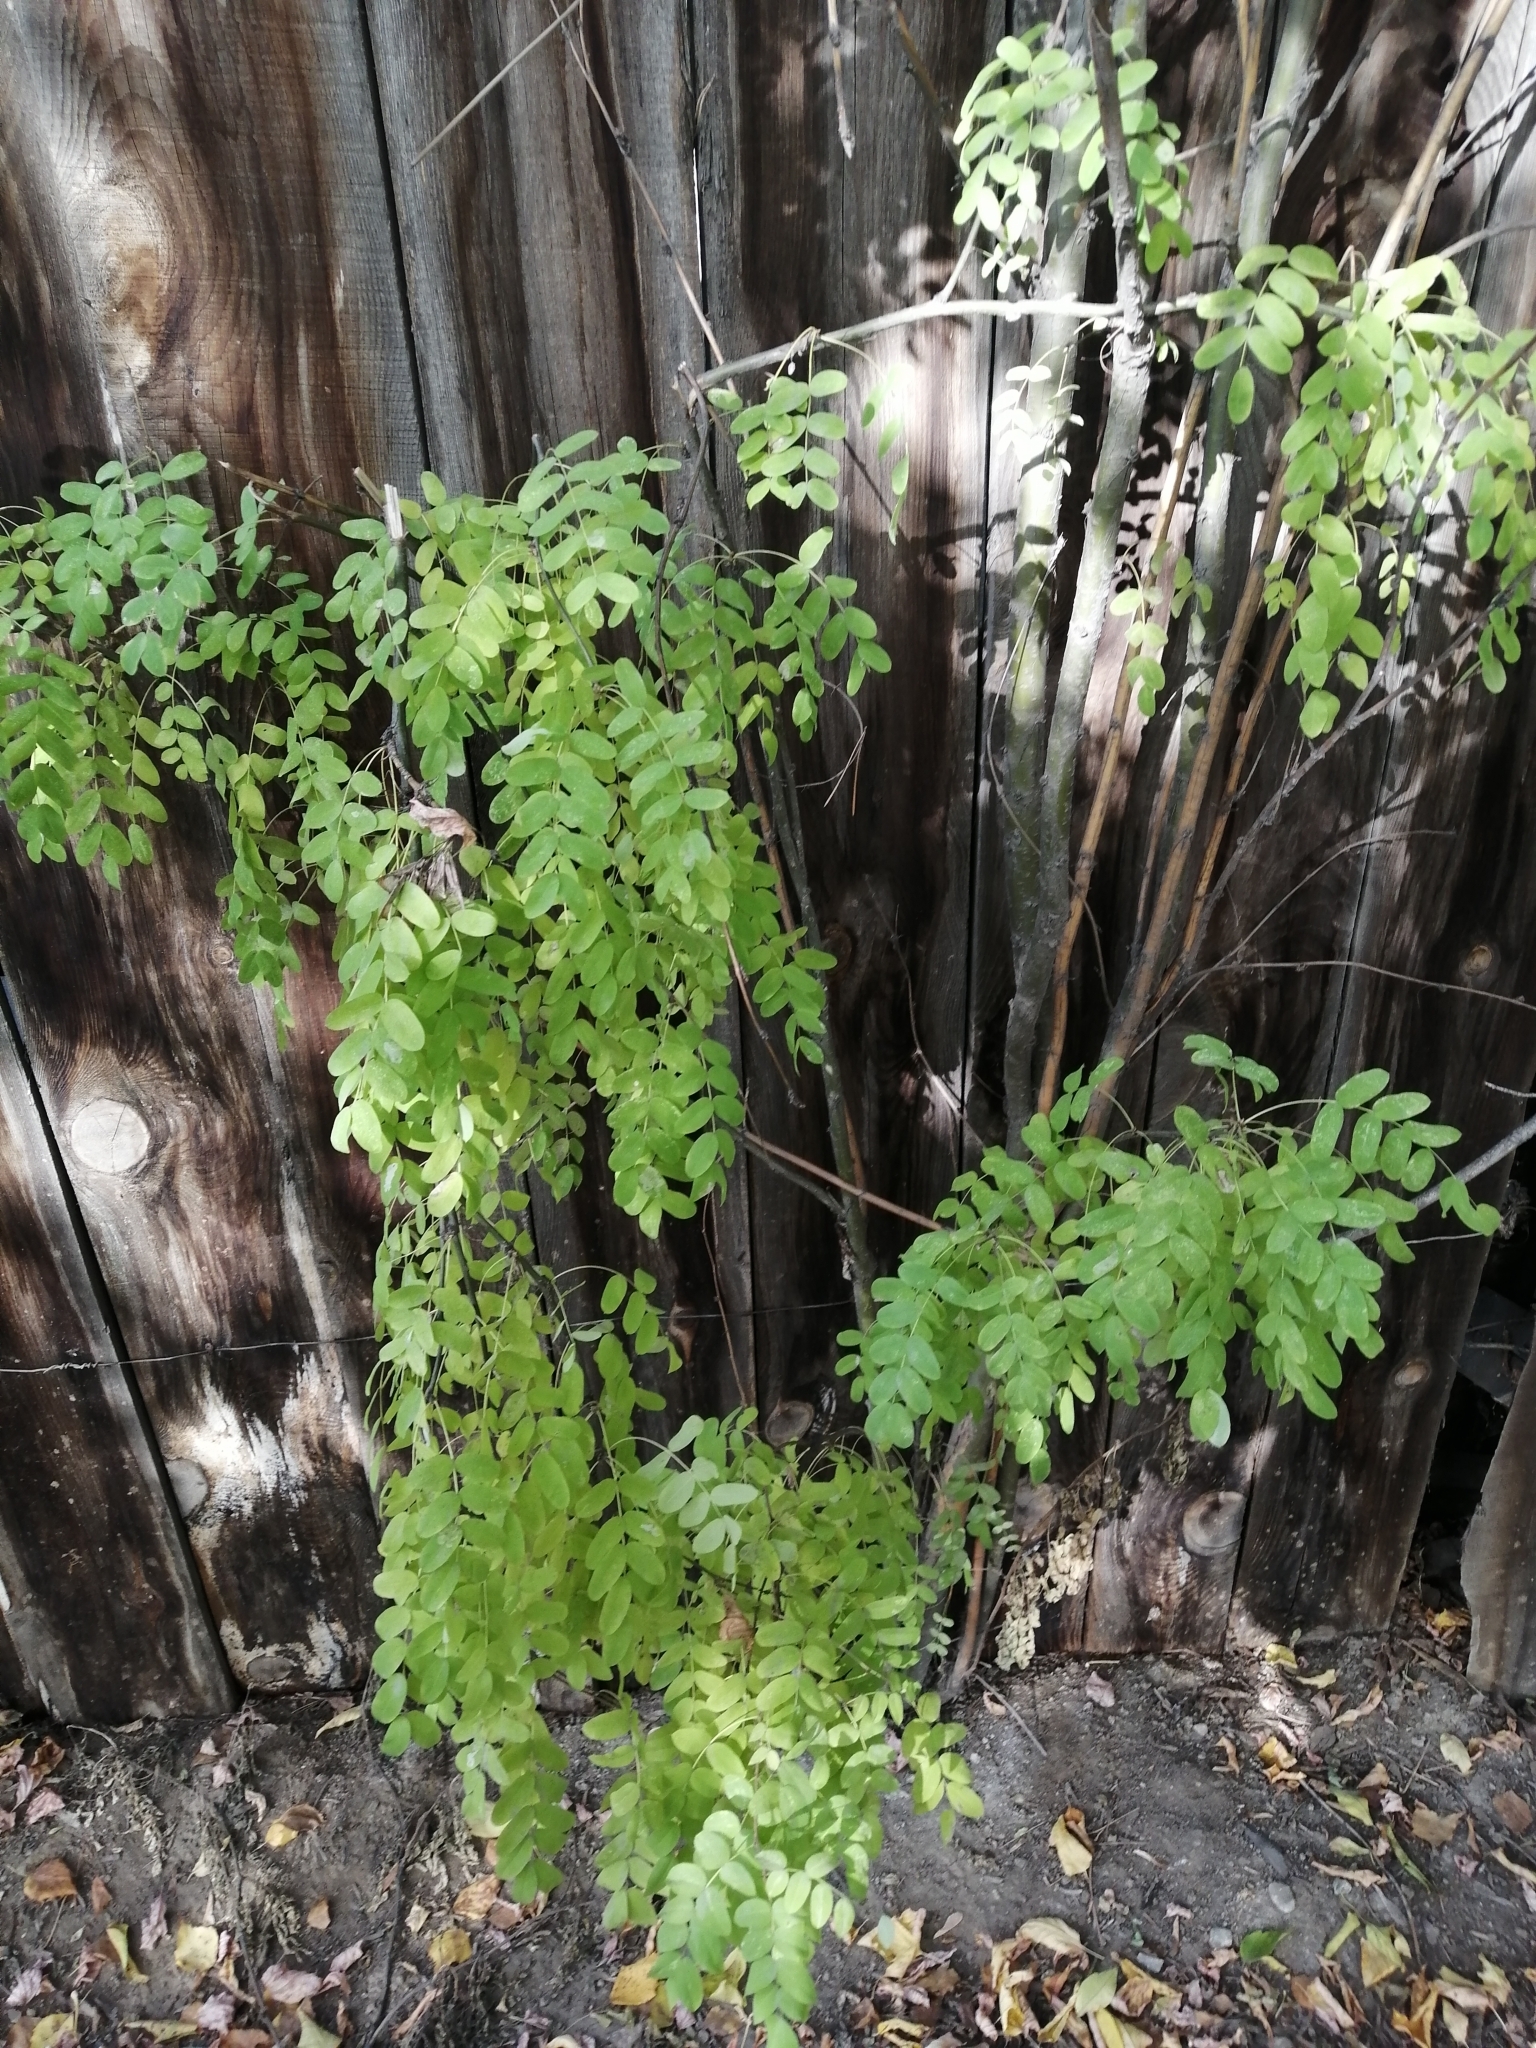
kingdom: Plantae
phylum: Tracheophyta
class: Magnoliopsida
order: Fabales
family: Fabaceae
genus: Caragana
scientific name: Caragana arborescens
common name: Siberian peashrub
